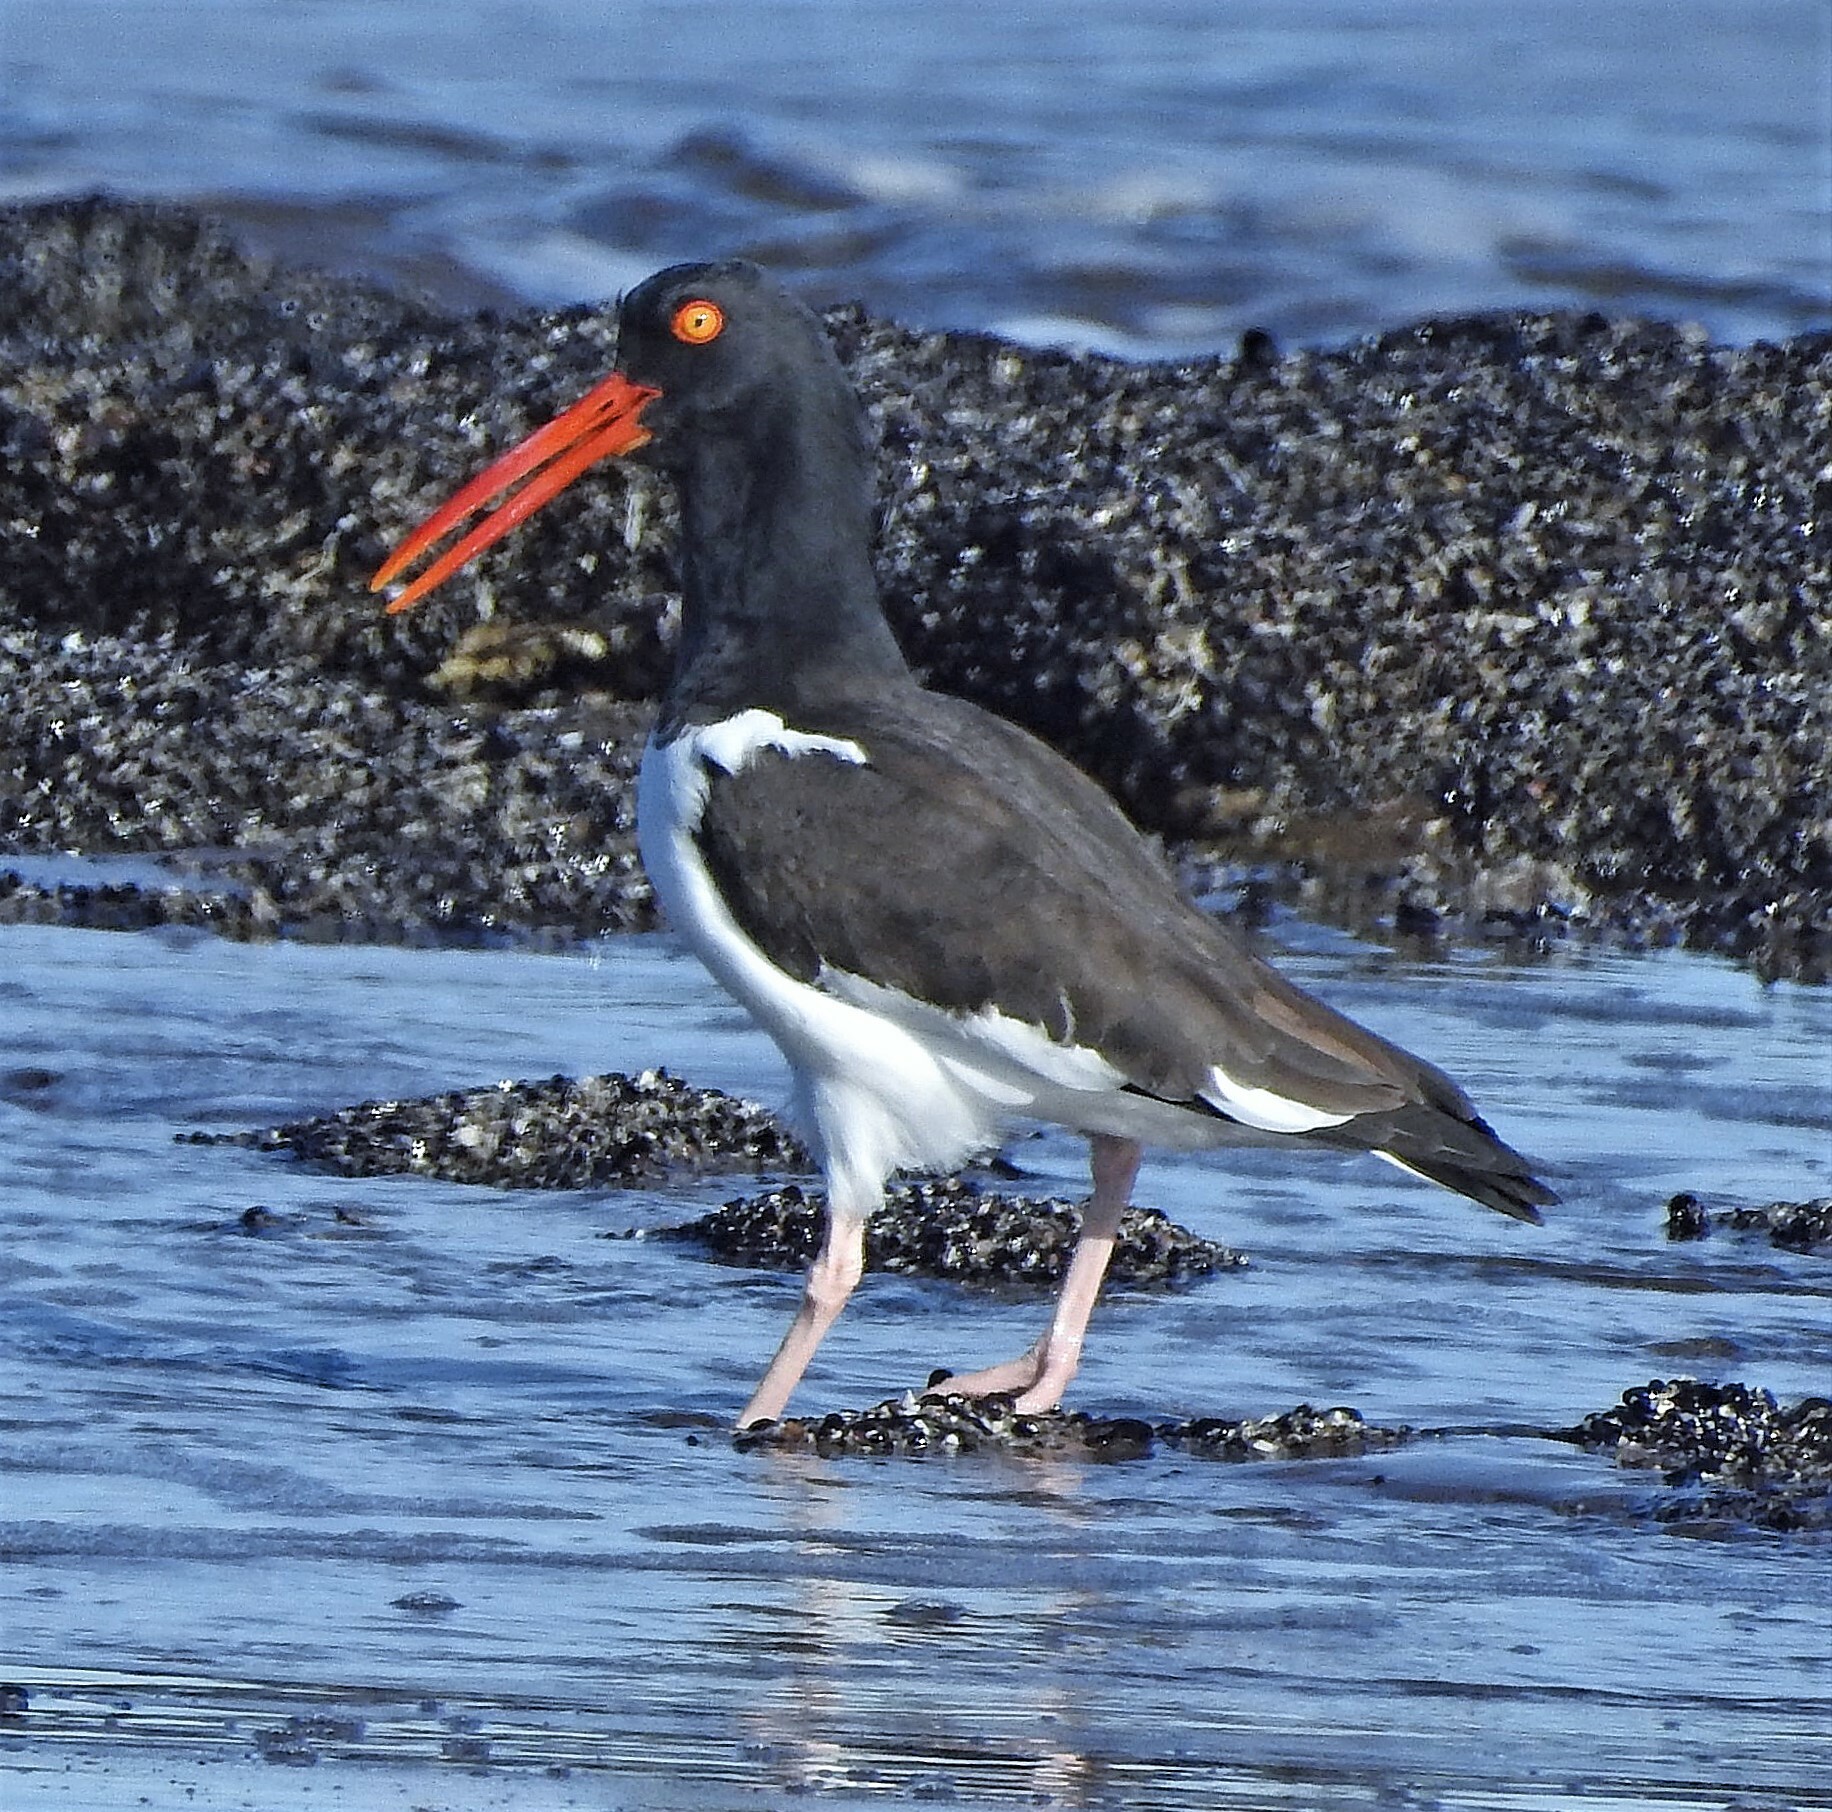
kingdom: Animalia
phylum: Chordata
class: Aves
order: Charadriiformes
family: Haematopodidae
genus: Haematopus
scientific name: Haematopus palliatus
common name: American oystercatcher
